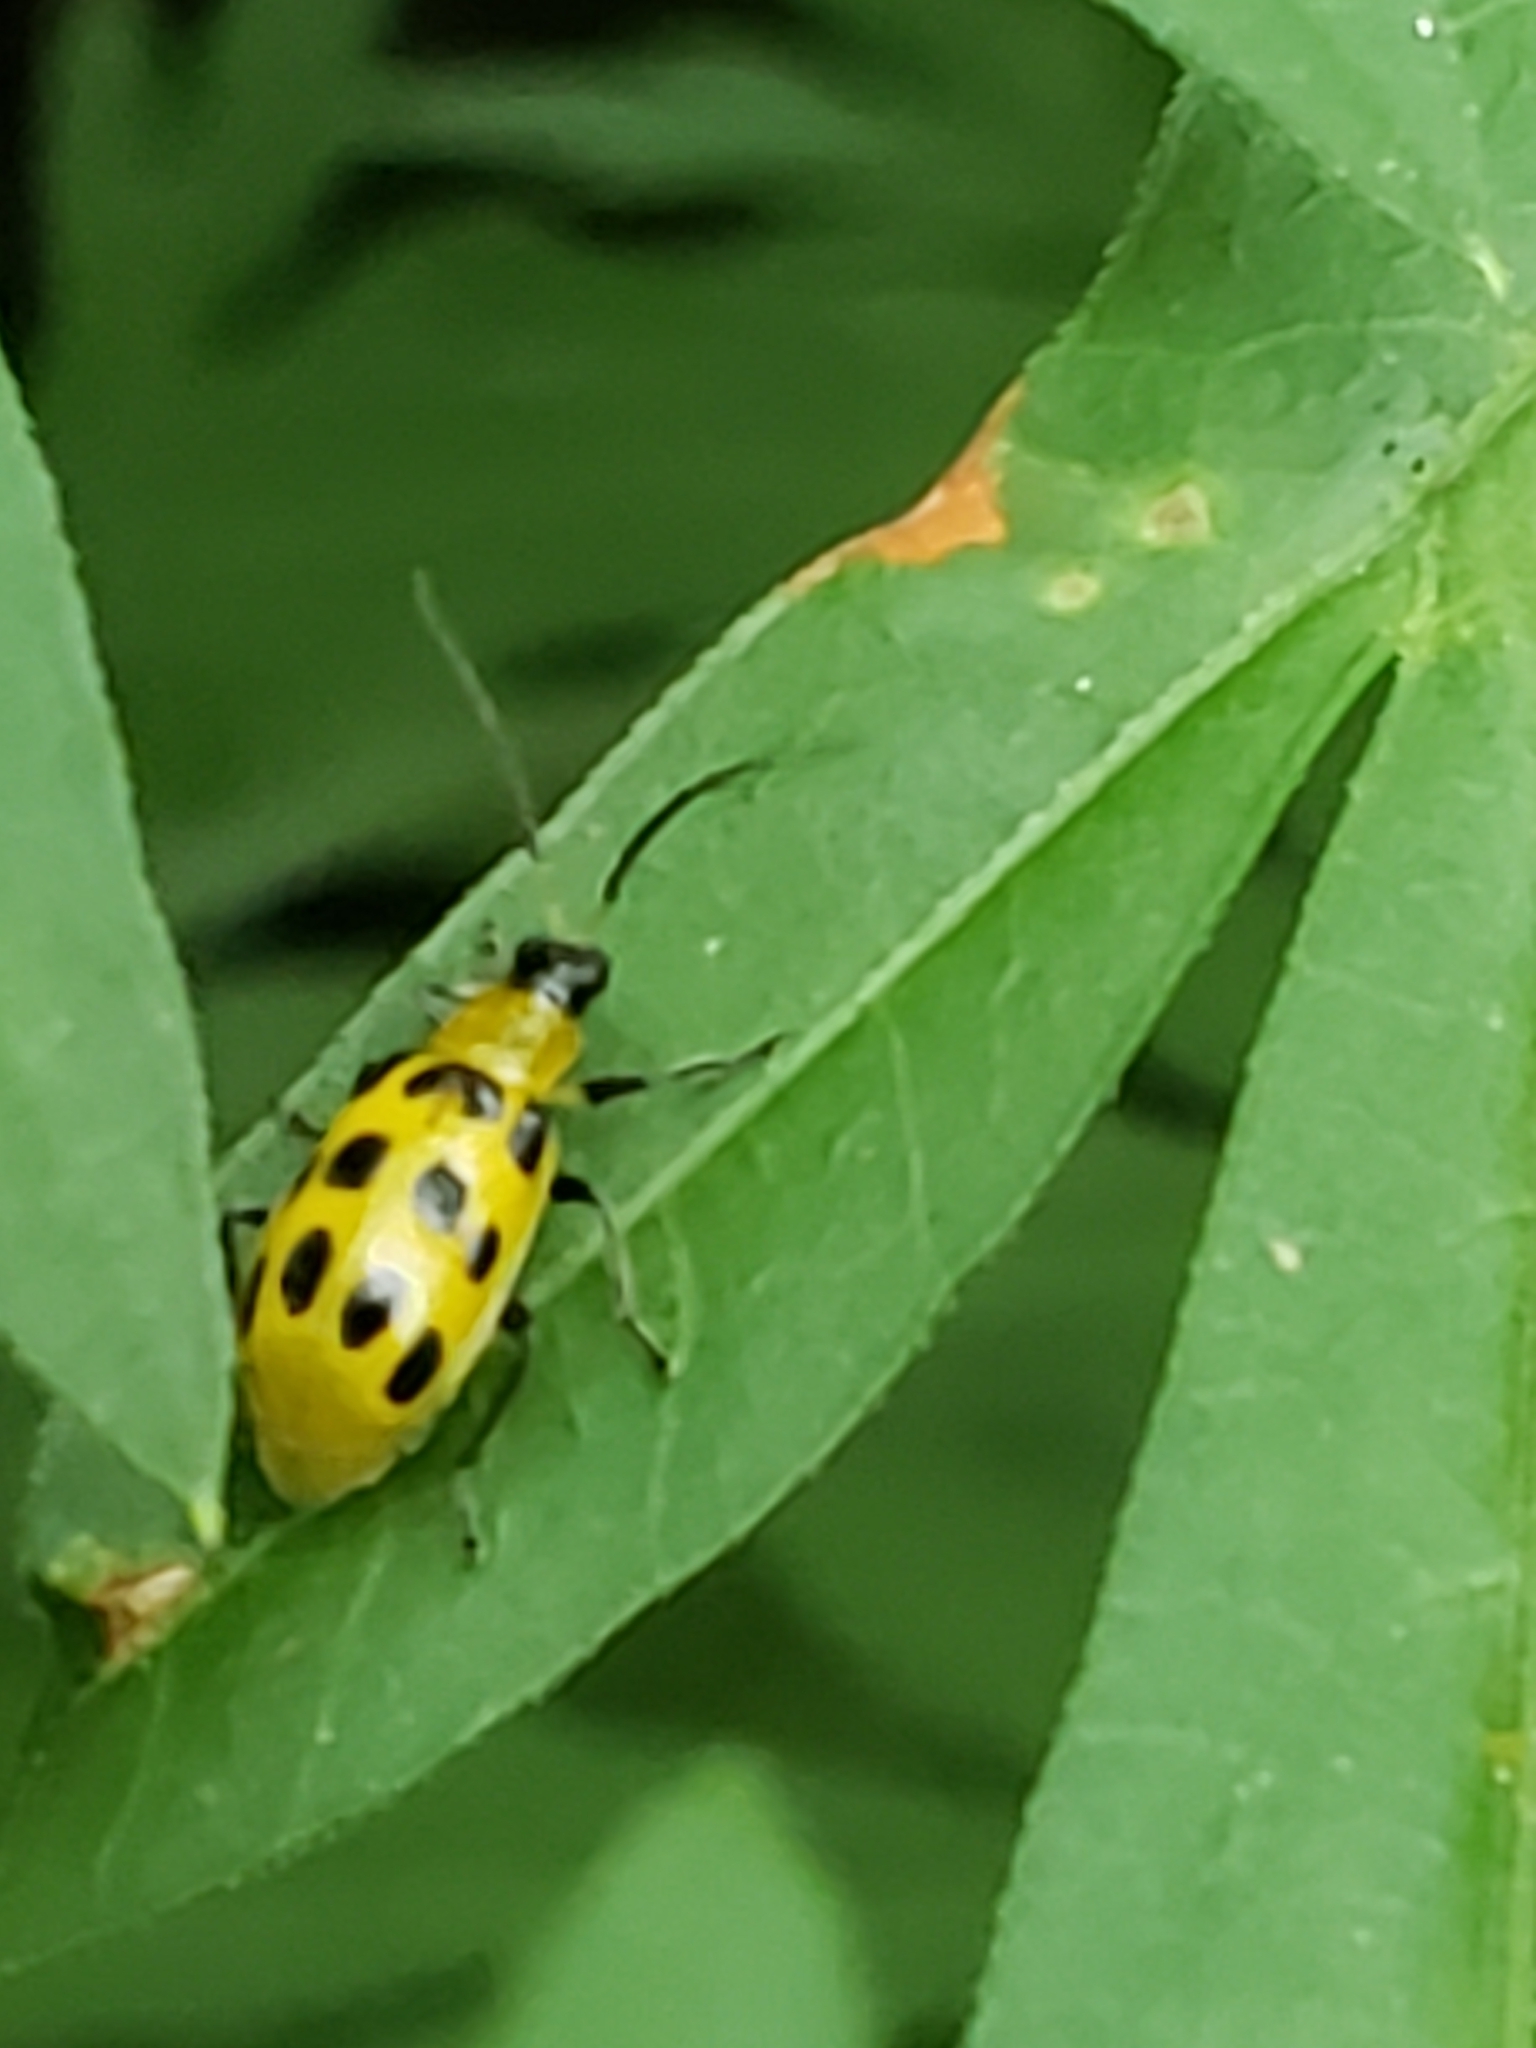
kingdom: Animalia
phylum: Arthropoda
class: Insecta
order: Coleoptera
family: Chrysomelidae
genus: Diabrotica
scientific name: Diabrotica undecimpunctata
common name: Spotted cucumber beetle
